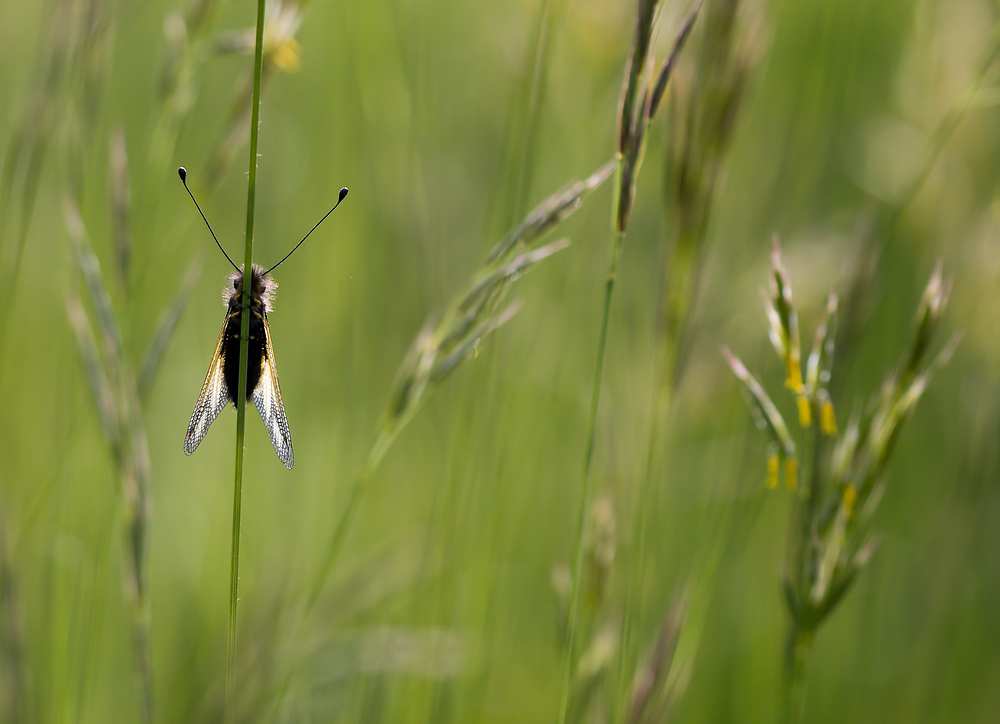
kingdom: Animalia
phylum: Arthropoda
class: Insecta
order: Neuroptera
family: Ascalaphidae
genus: Libelloides
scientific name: Libelloides coccajus
